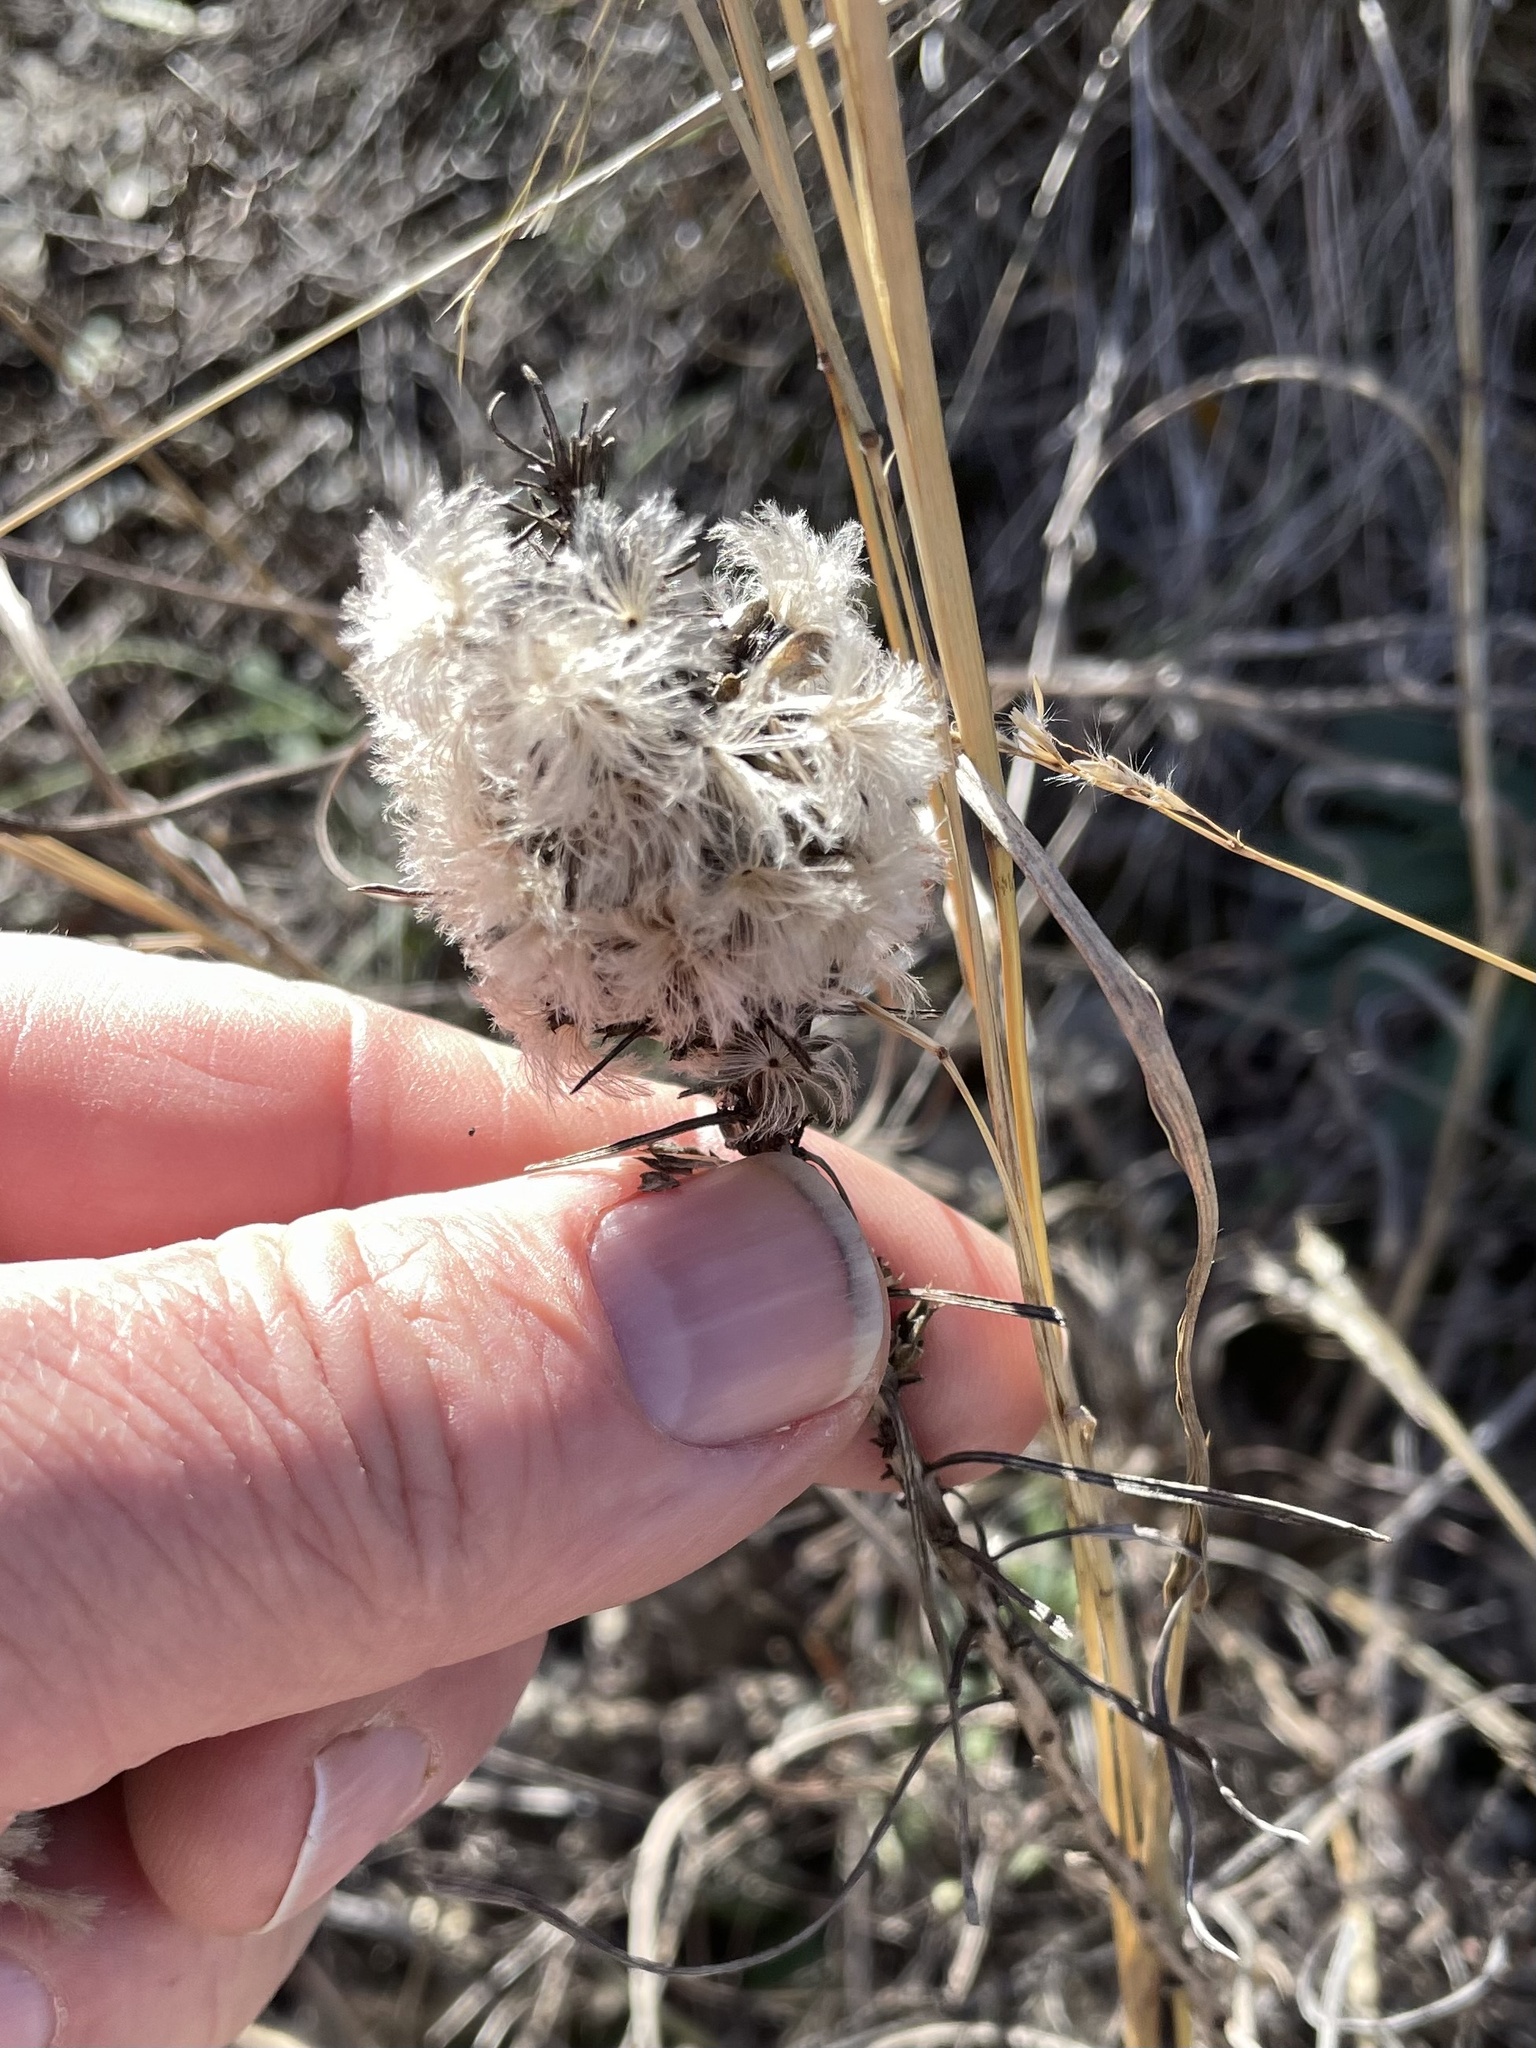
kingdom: Plantae
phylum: Tracheophyta
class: Magnoliopsida
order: Asterales
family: Asteraceae
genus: Liatris
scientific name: Liatris punctata
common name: Dotted gayfeather
